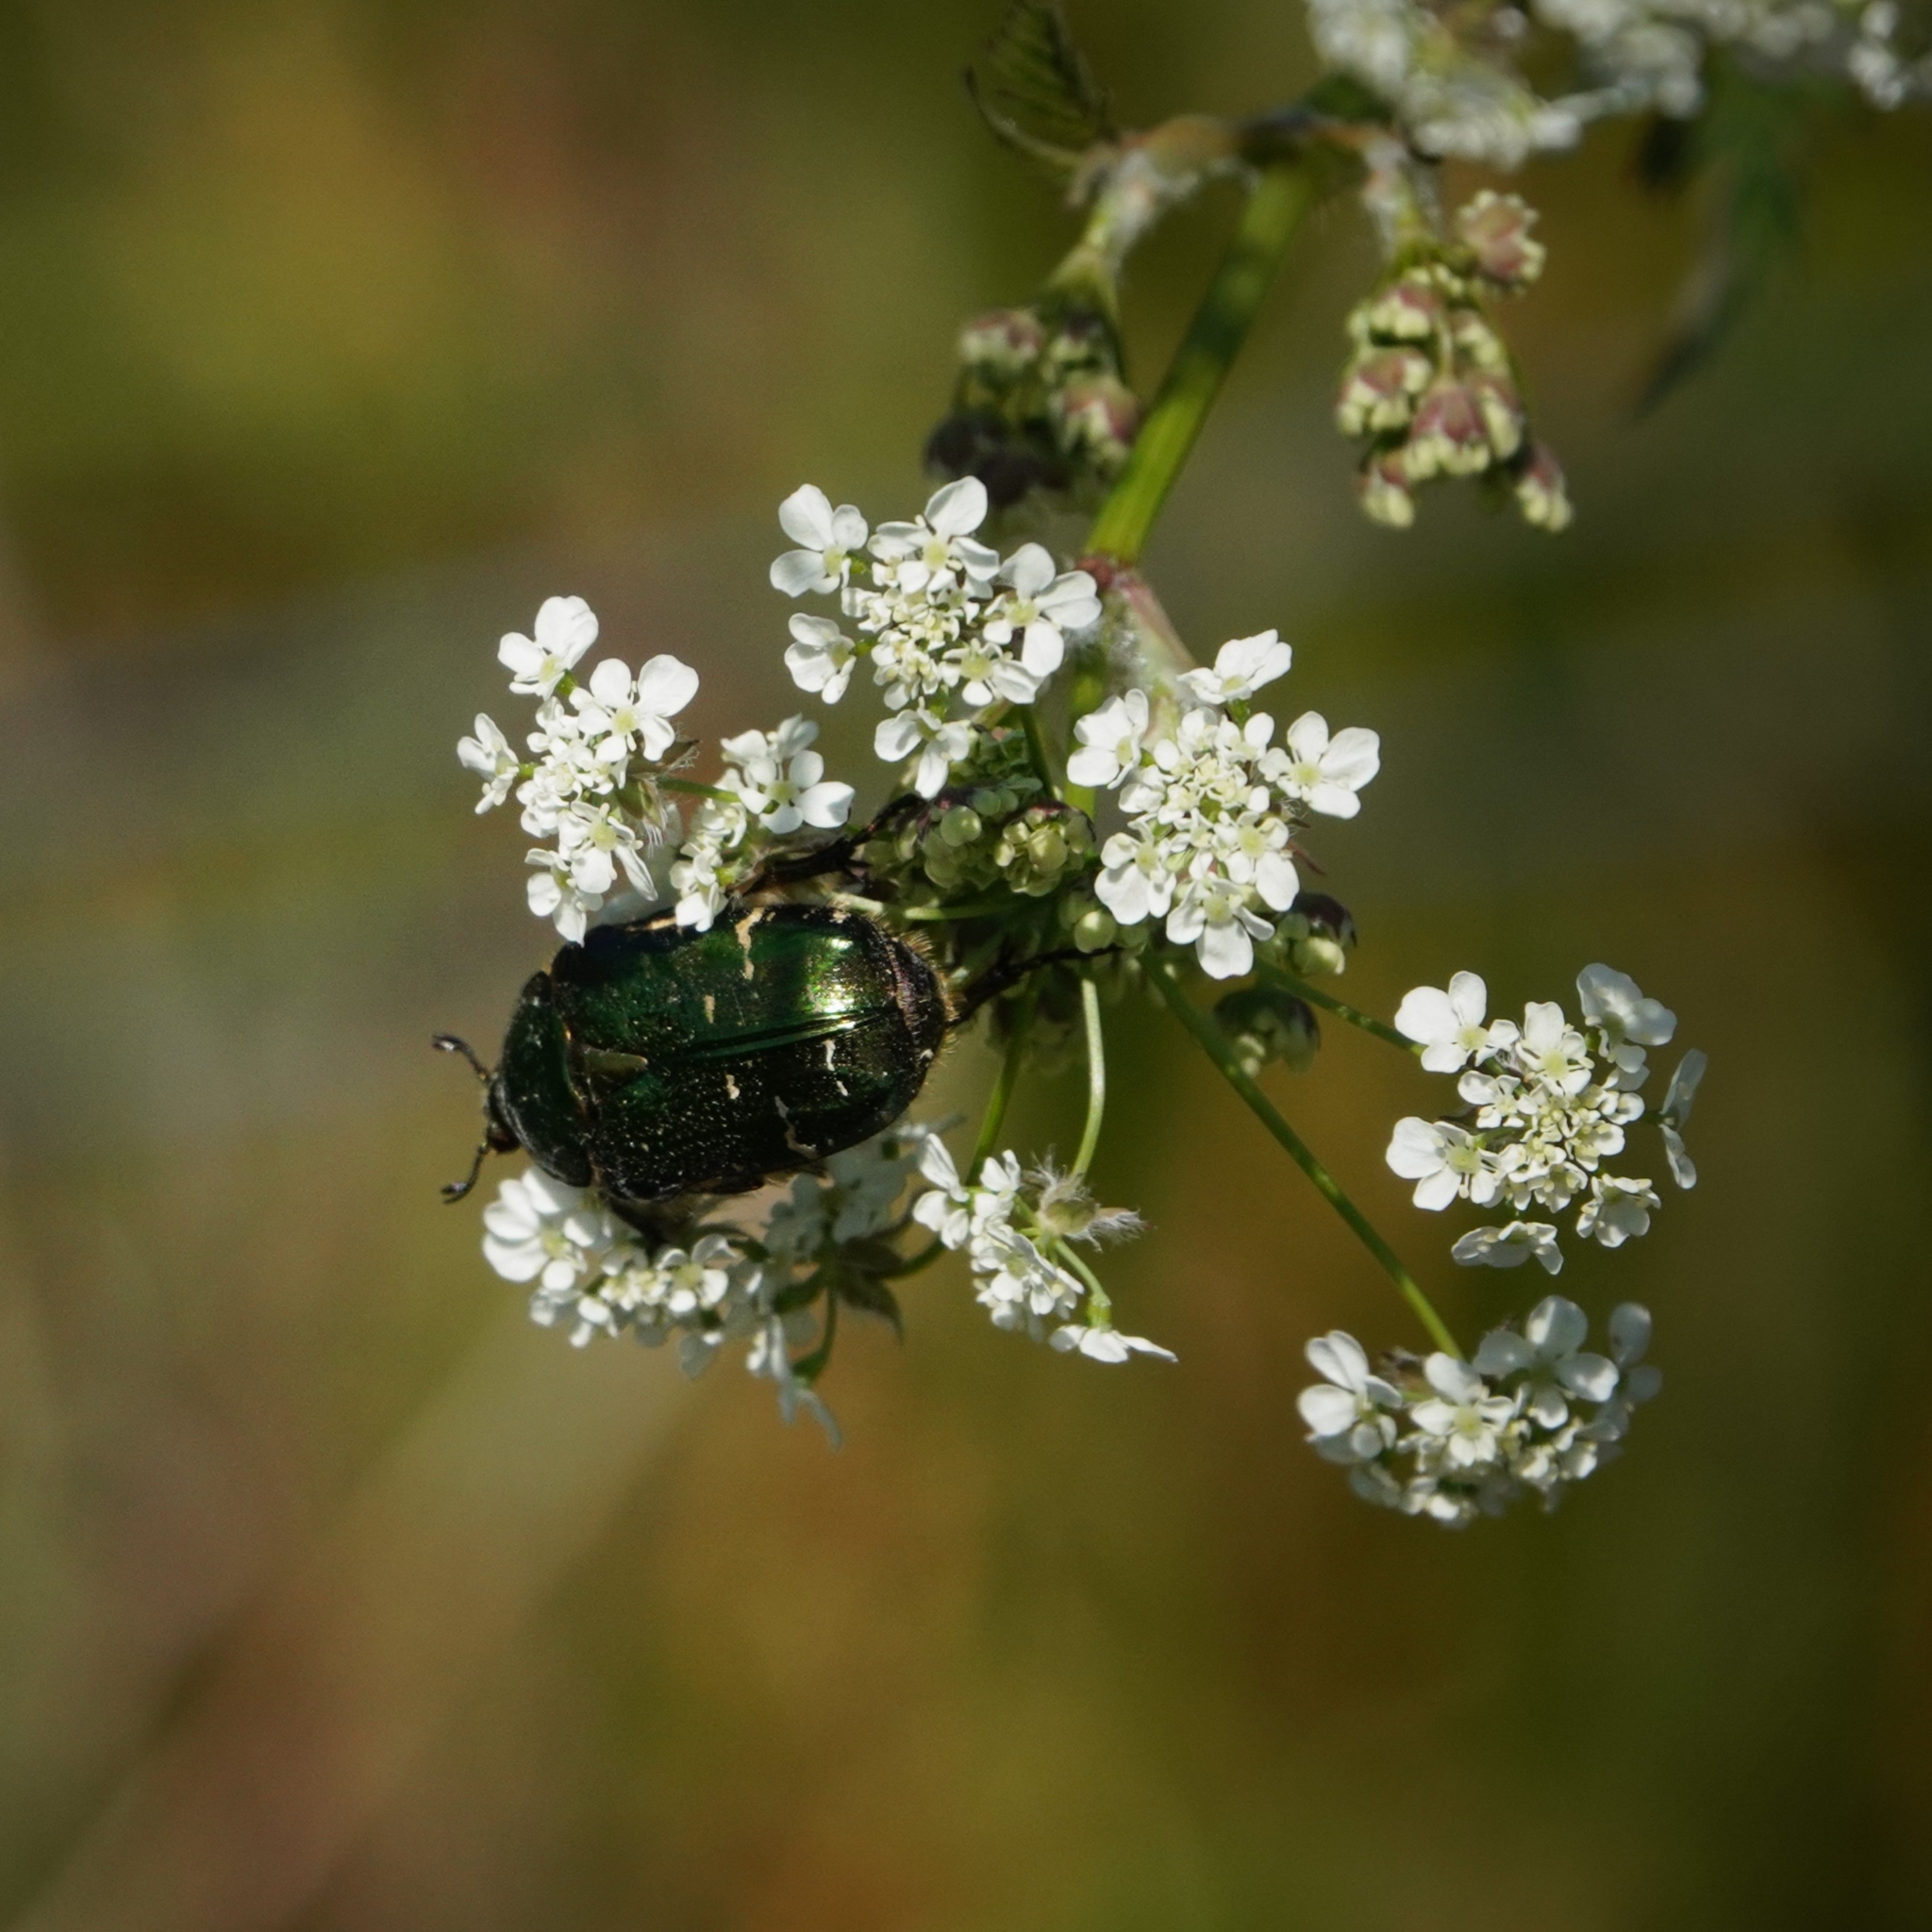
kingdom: Animalia
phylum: Arthropoda
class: Insecta
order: Coleoptera
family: Scarabaeidae
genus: Cetonia
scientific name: Cetonia aurata
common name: Rose chafer
